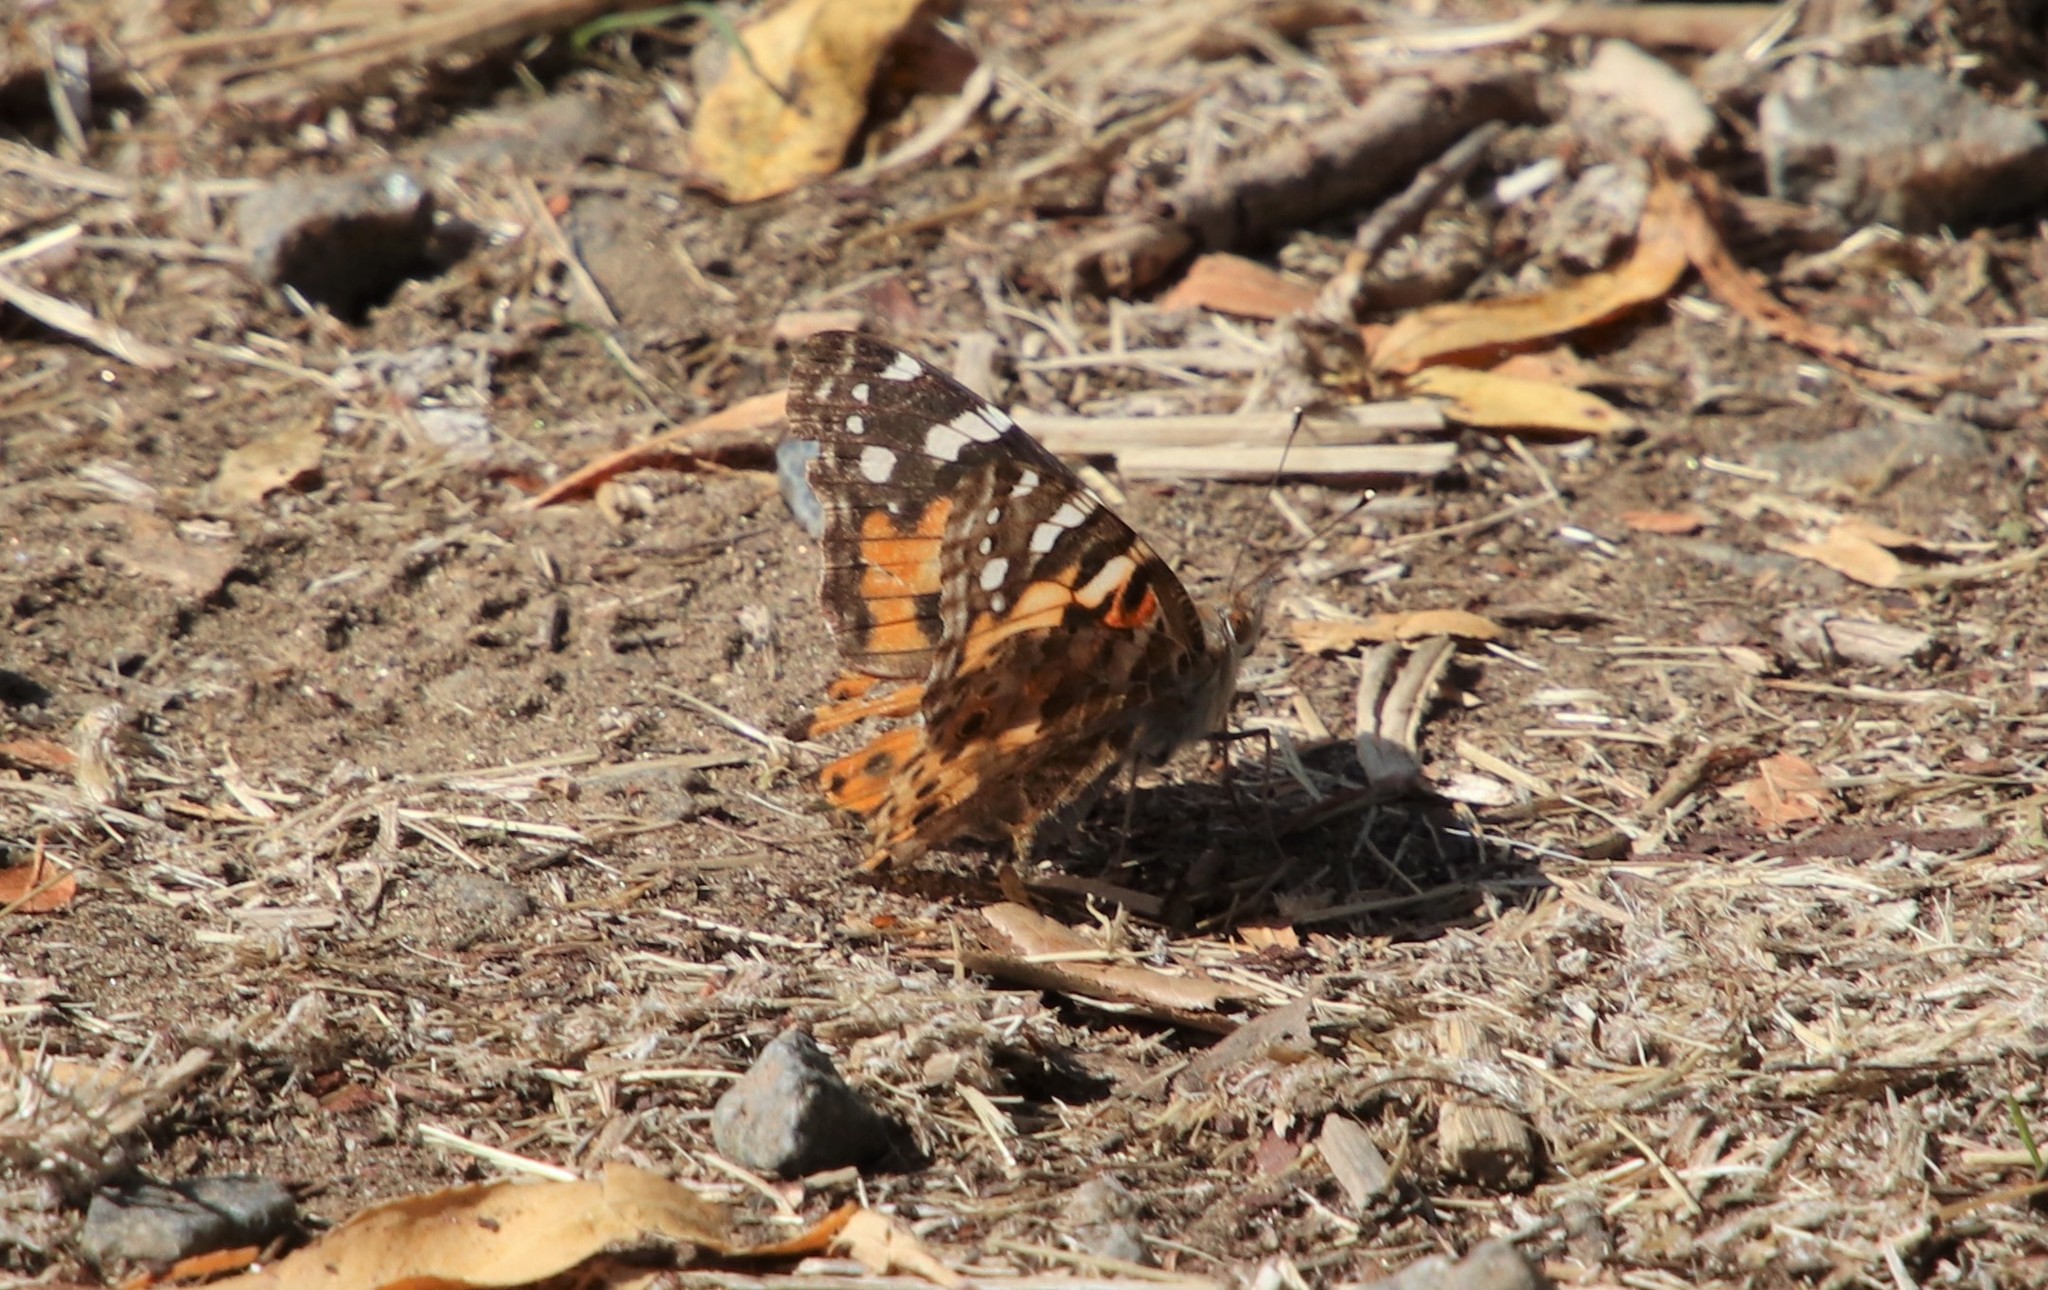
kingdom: Animalia
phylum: Arthropoda
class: Insecta
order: Lepidoptera
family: Nymphalidae
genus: Vanessa
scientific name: Vanessa cardui
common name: Painted lady
